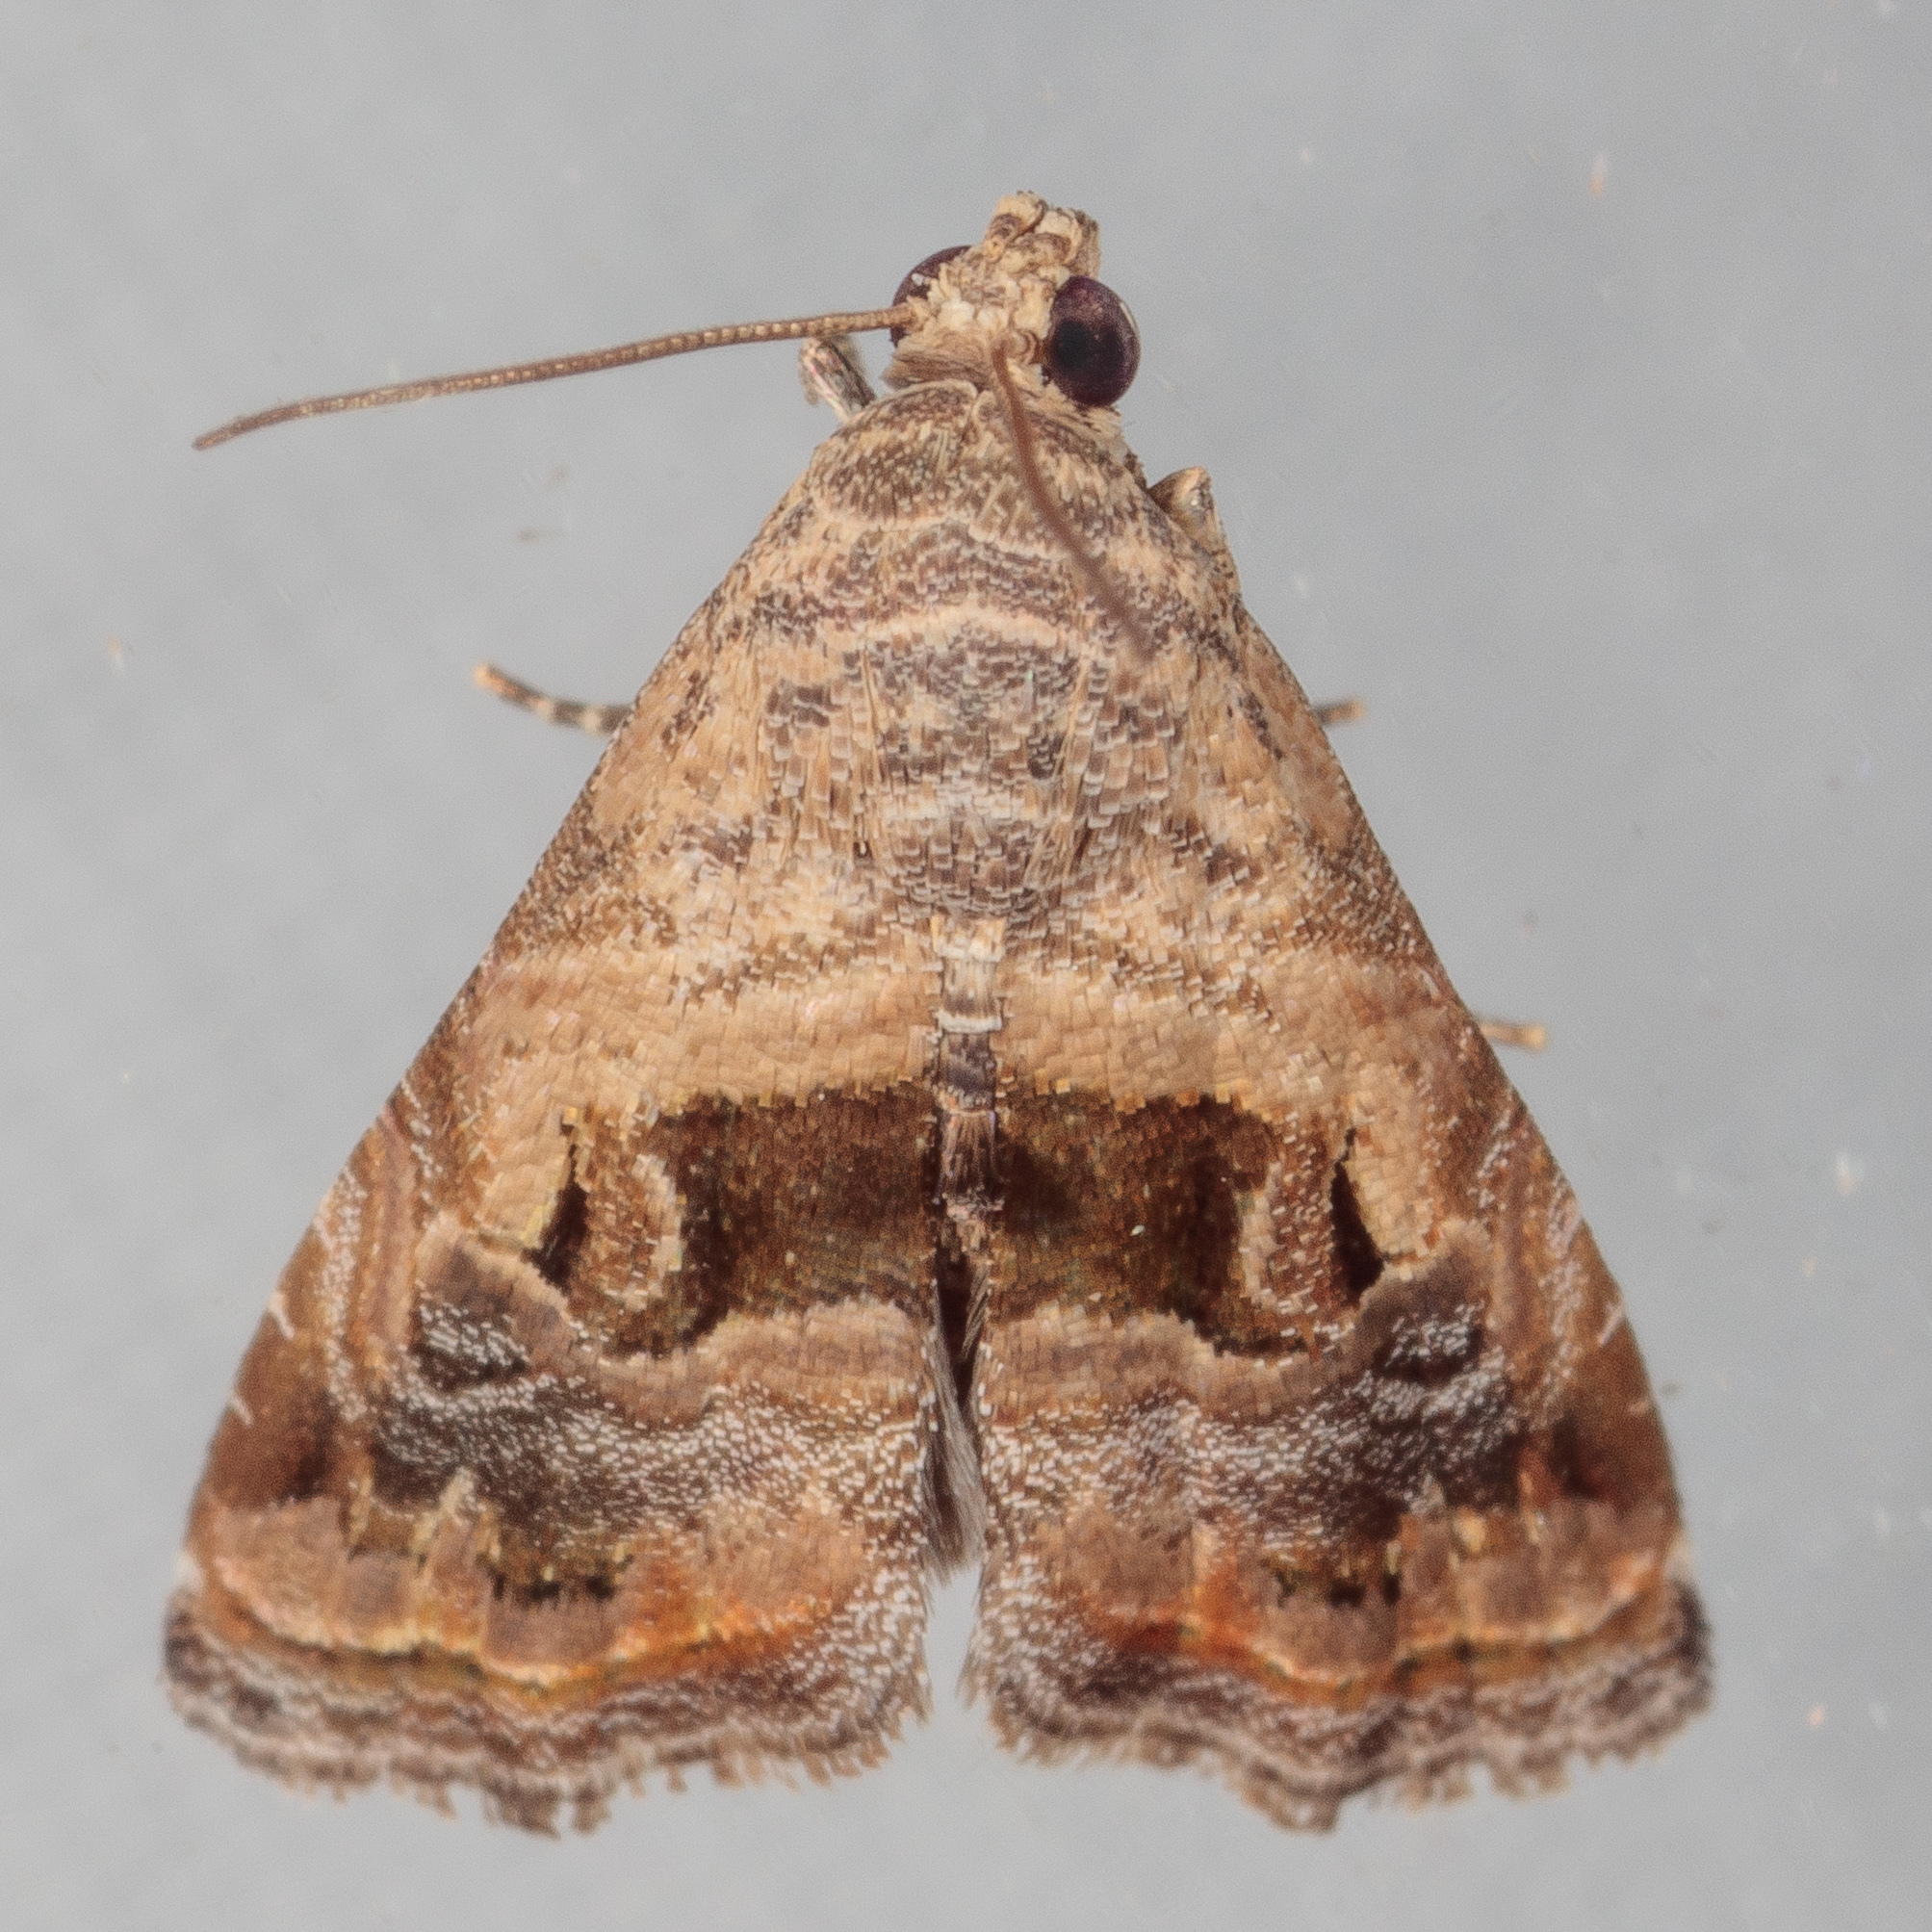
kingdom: Animalia
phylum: Arthropoda
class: Insecta
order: Lepidoptera
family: Noctuidae
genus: Tripudia
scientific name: Tripudia quadrifera
